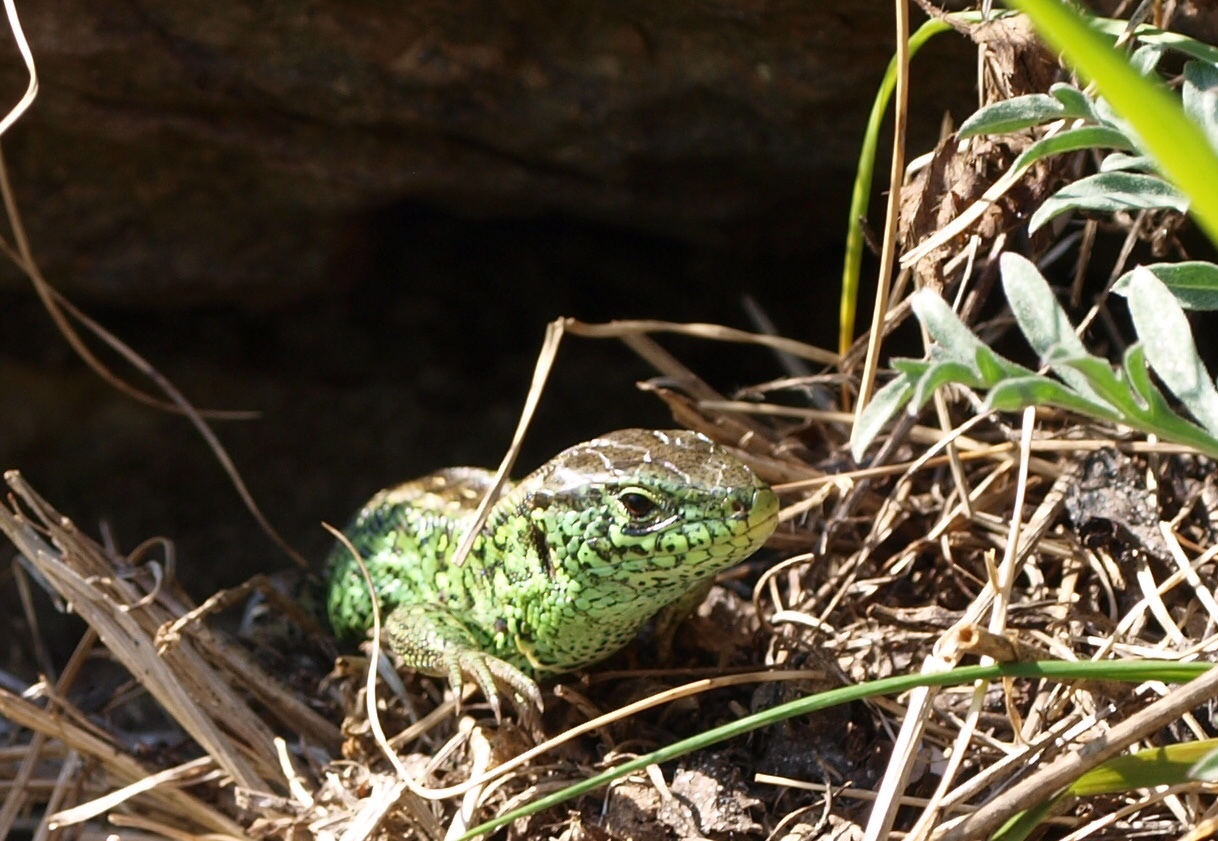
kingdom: Animalia
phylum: Chordata
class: Squamata
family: Lacertidae
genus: Lacerta
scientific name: Lacerta agilis
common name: Sand lizard
